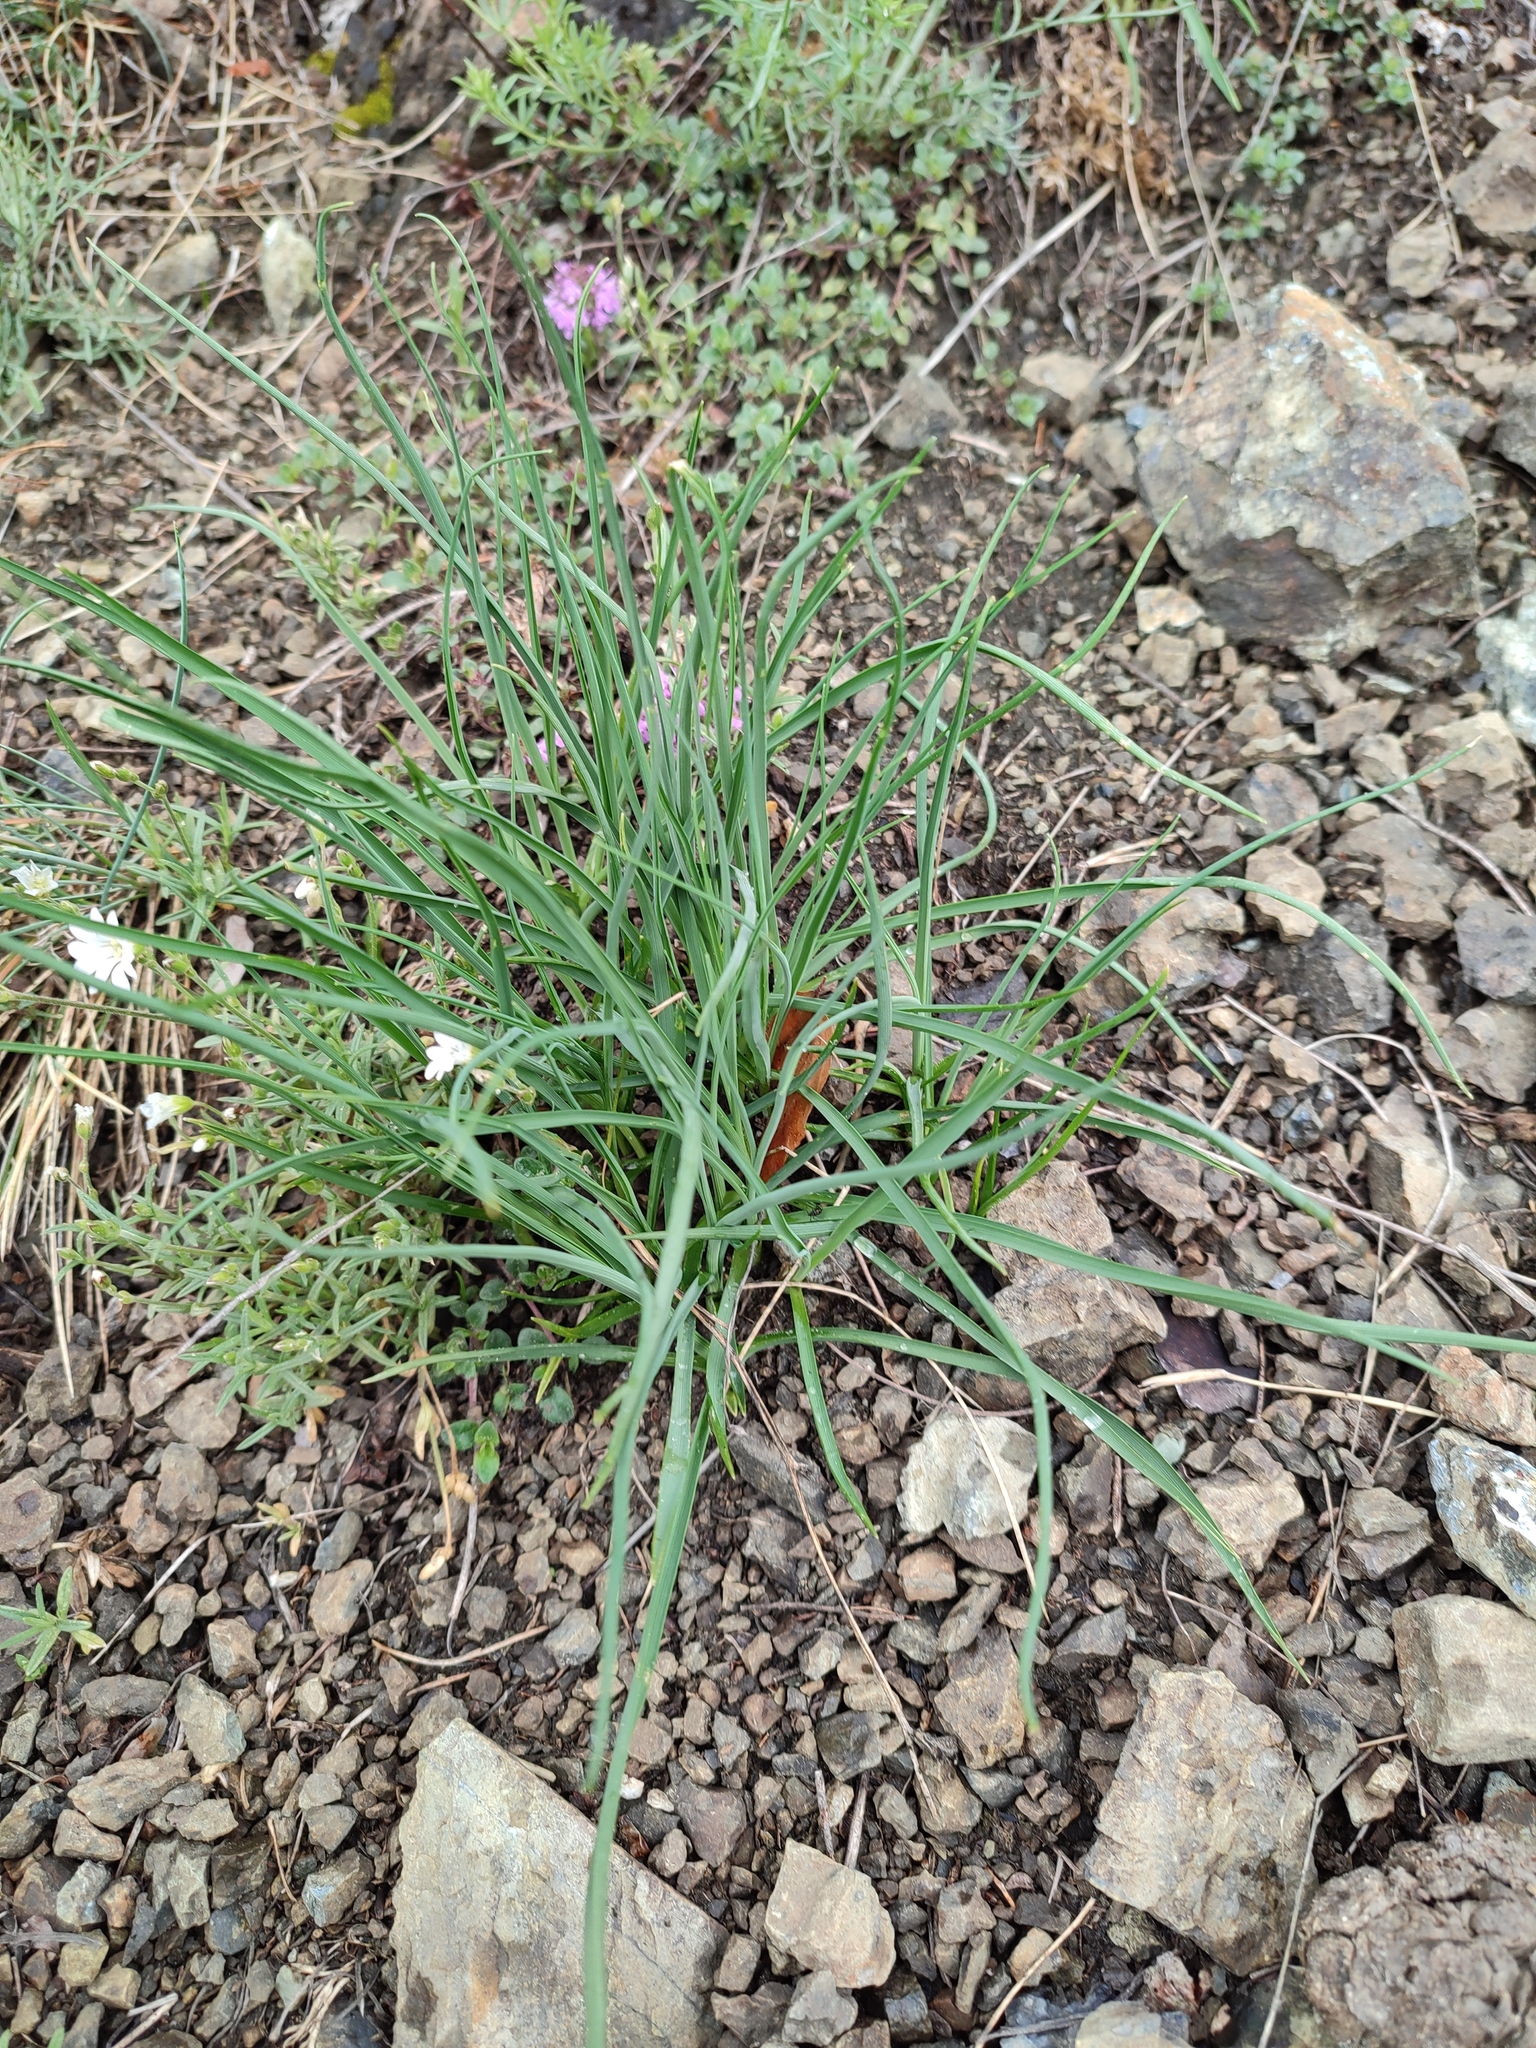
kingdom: Plantae
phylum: Tracheophyta
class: Liliopsida
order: Asparagales
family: Asparagaceae
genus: Anthericum
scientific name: Anthericum ramosum
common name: Branched st. bernard's-lily
